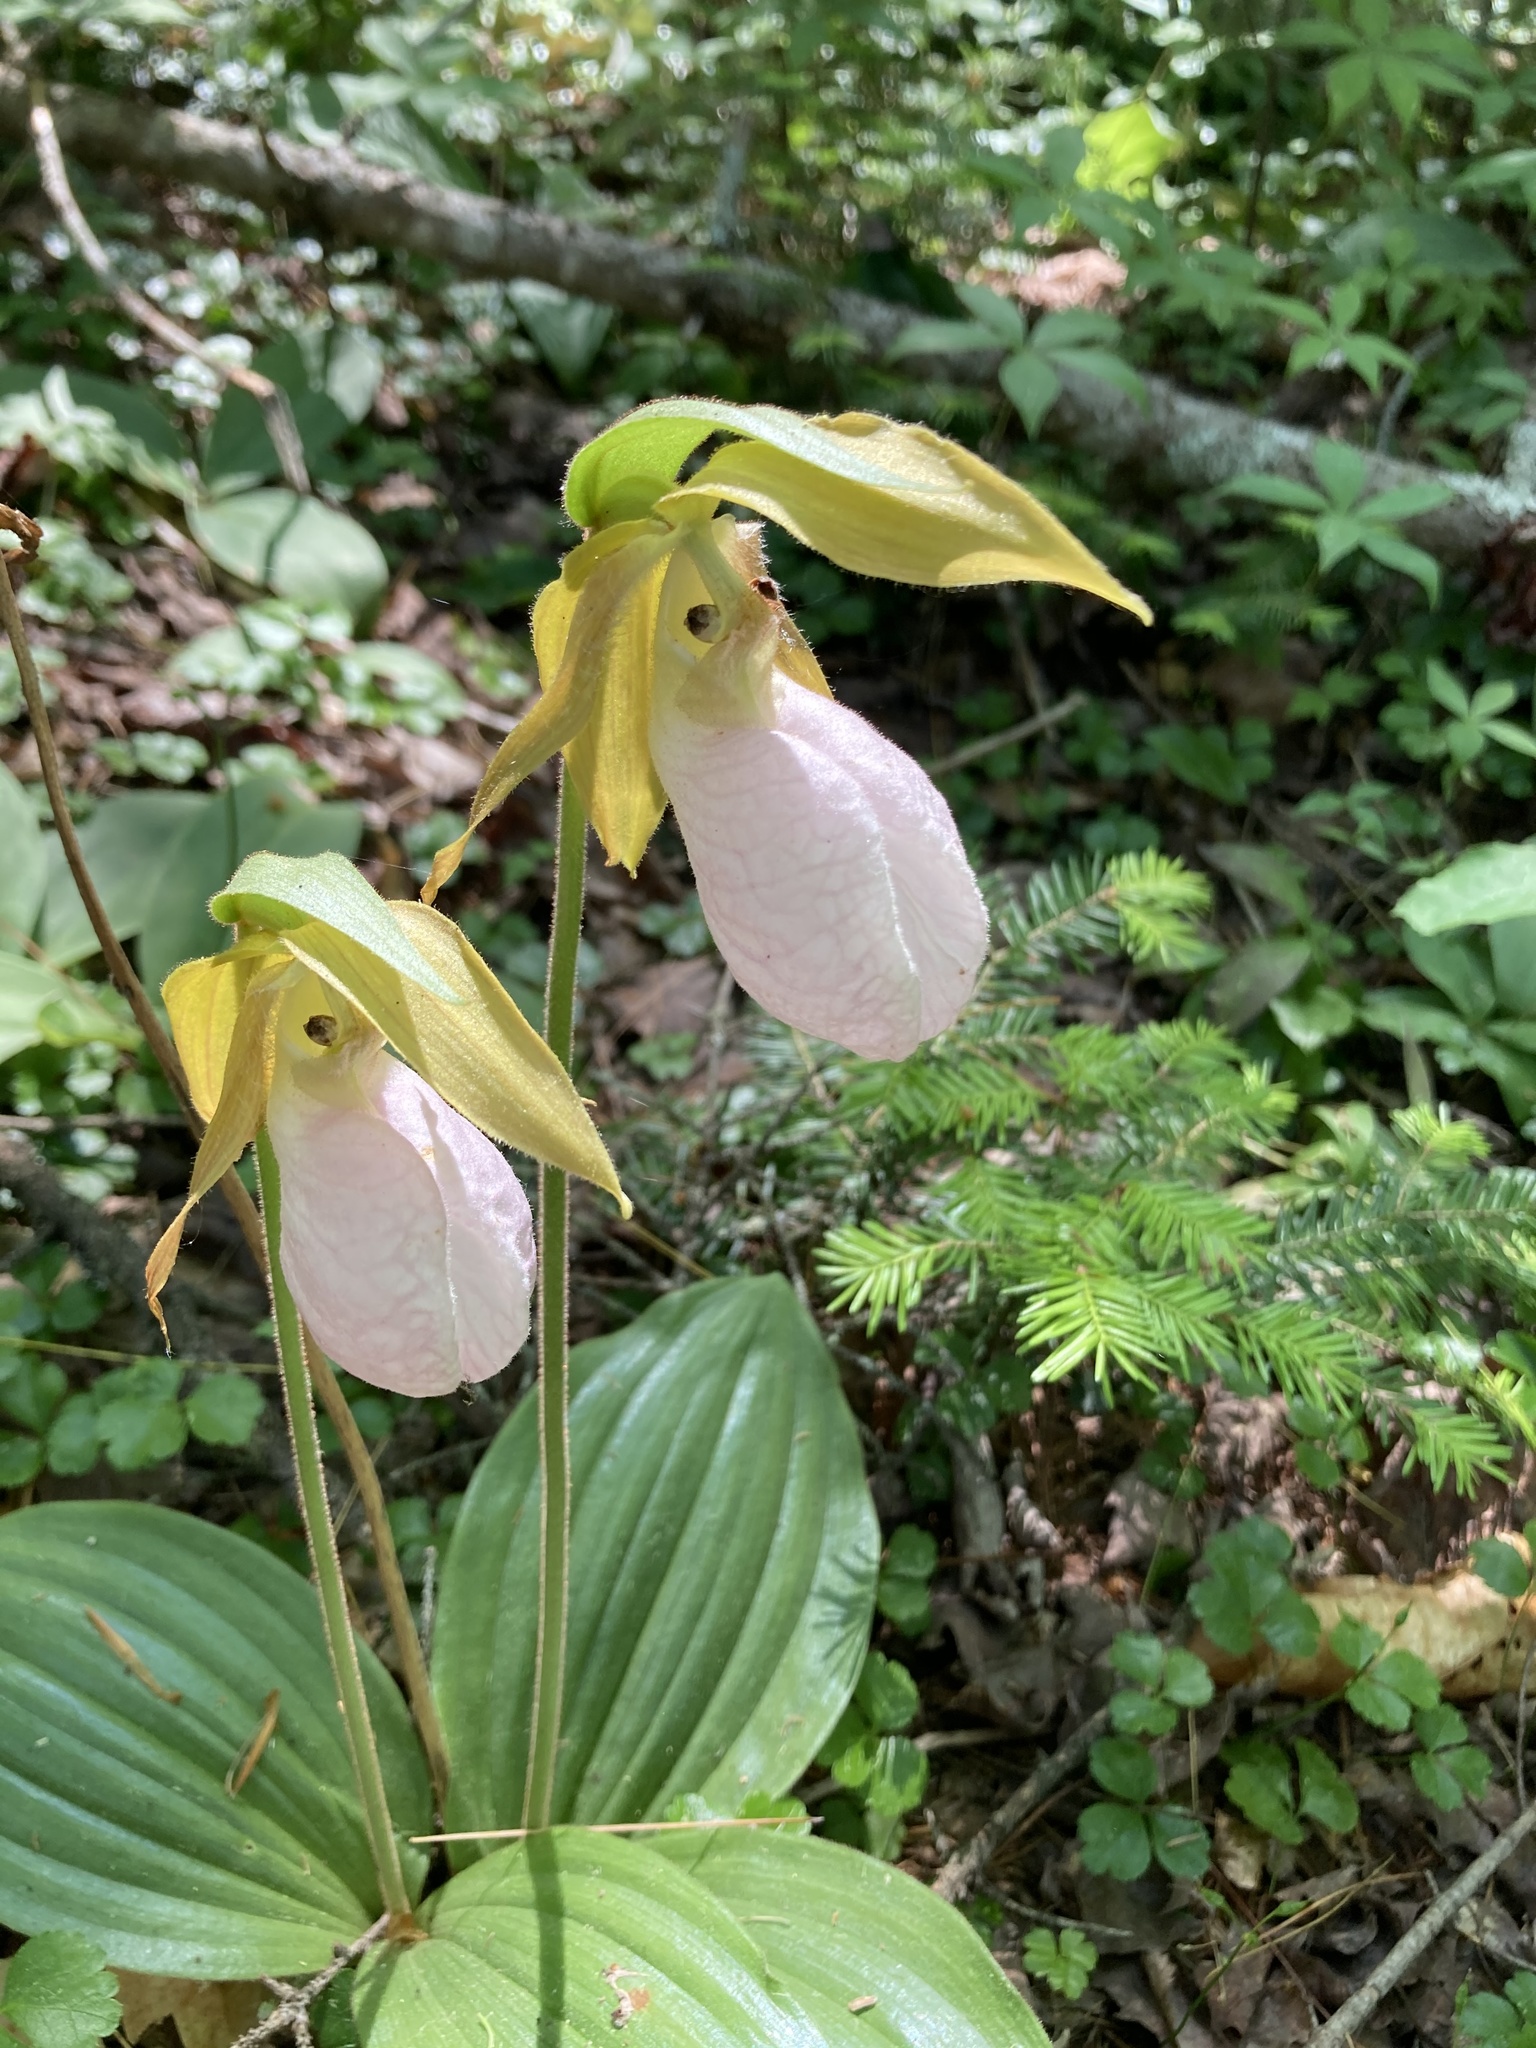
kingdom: Plantae
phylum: Tracheophyta
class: Liliopsida
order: Asparagales
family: Orchidaceae
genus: Cypripedium
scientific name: Cypripedium acaule
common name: Pink lady's-slipper
